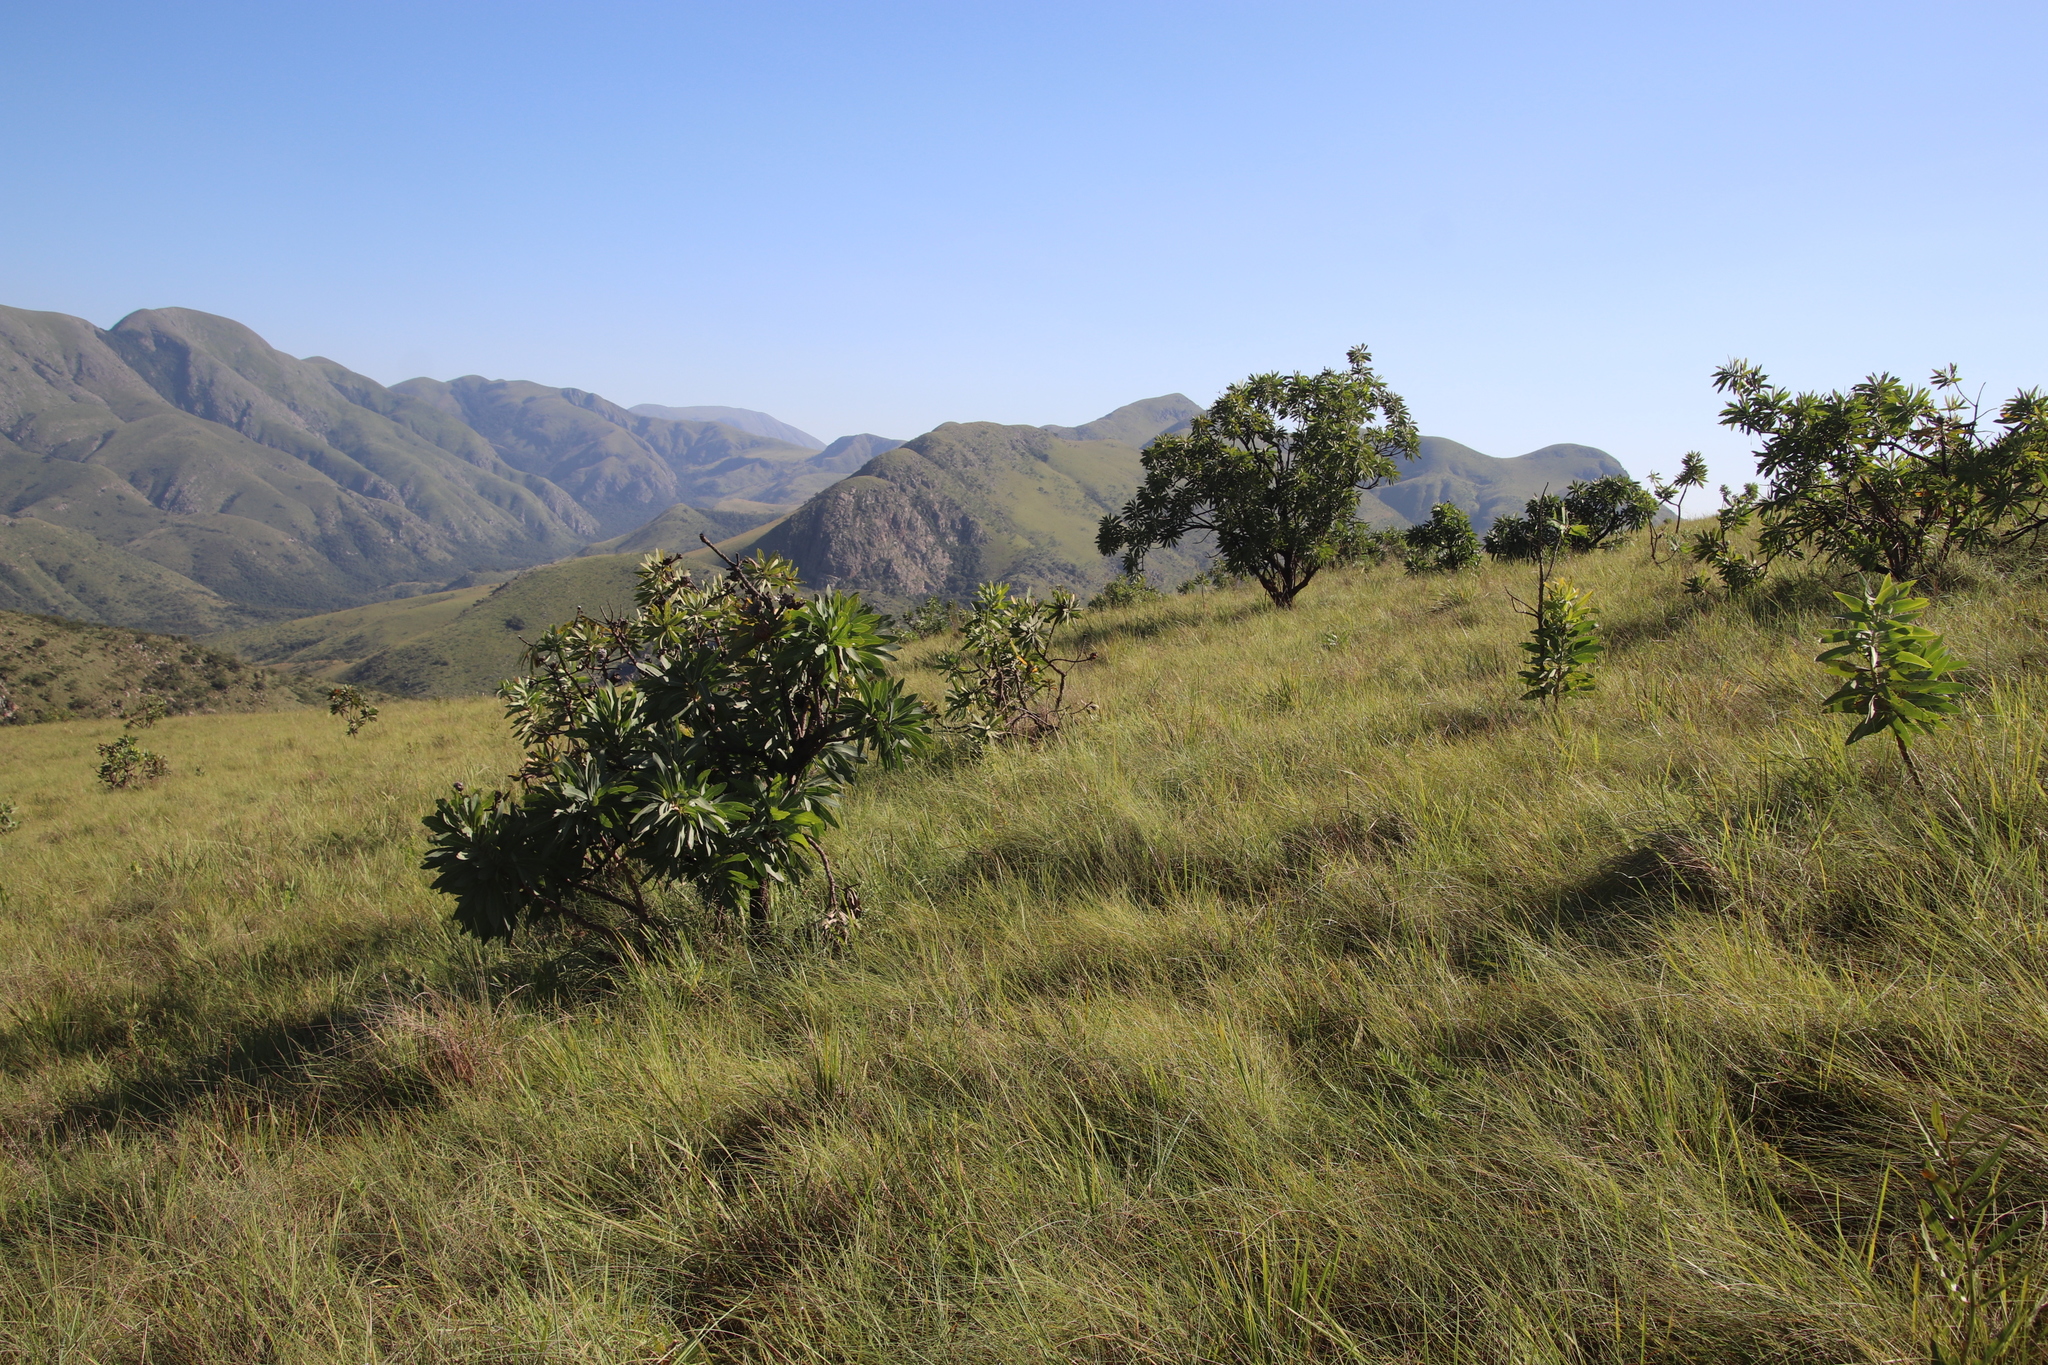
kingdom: Plantae
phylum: Tracheophyta
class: Magnoliopsida
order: Proteales
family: Proteaceae
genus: Protea
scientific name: Protea caffra
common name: Common sugarbush
